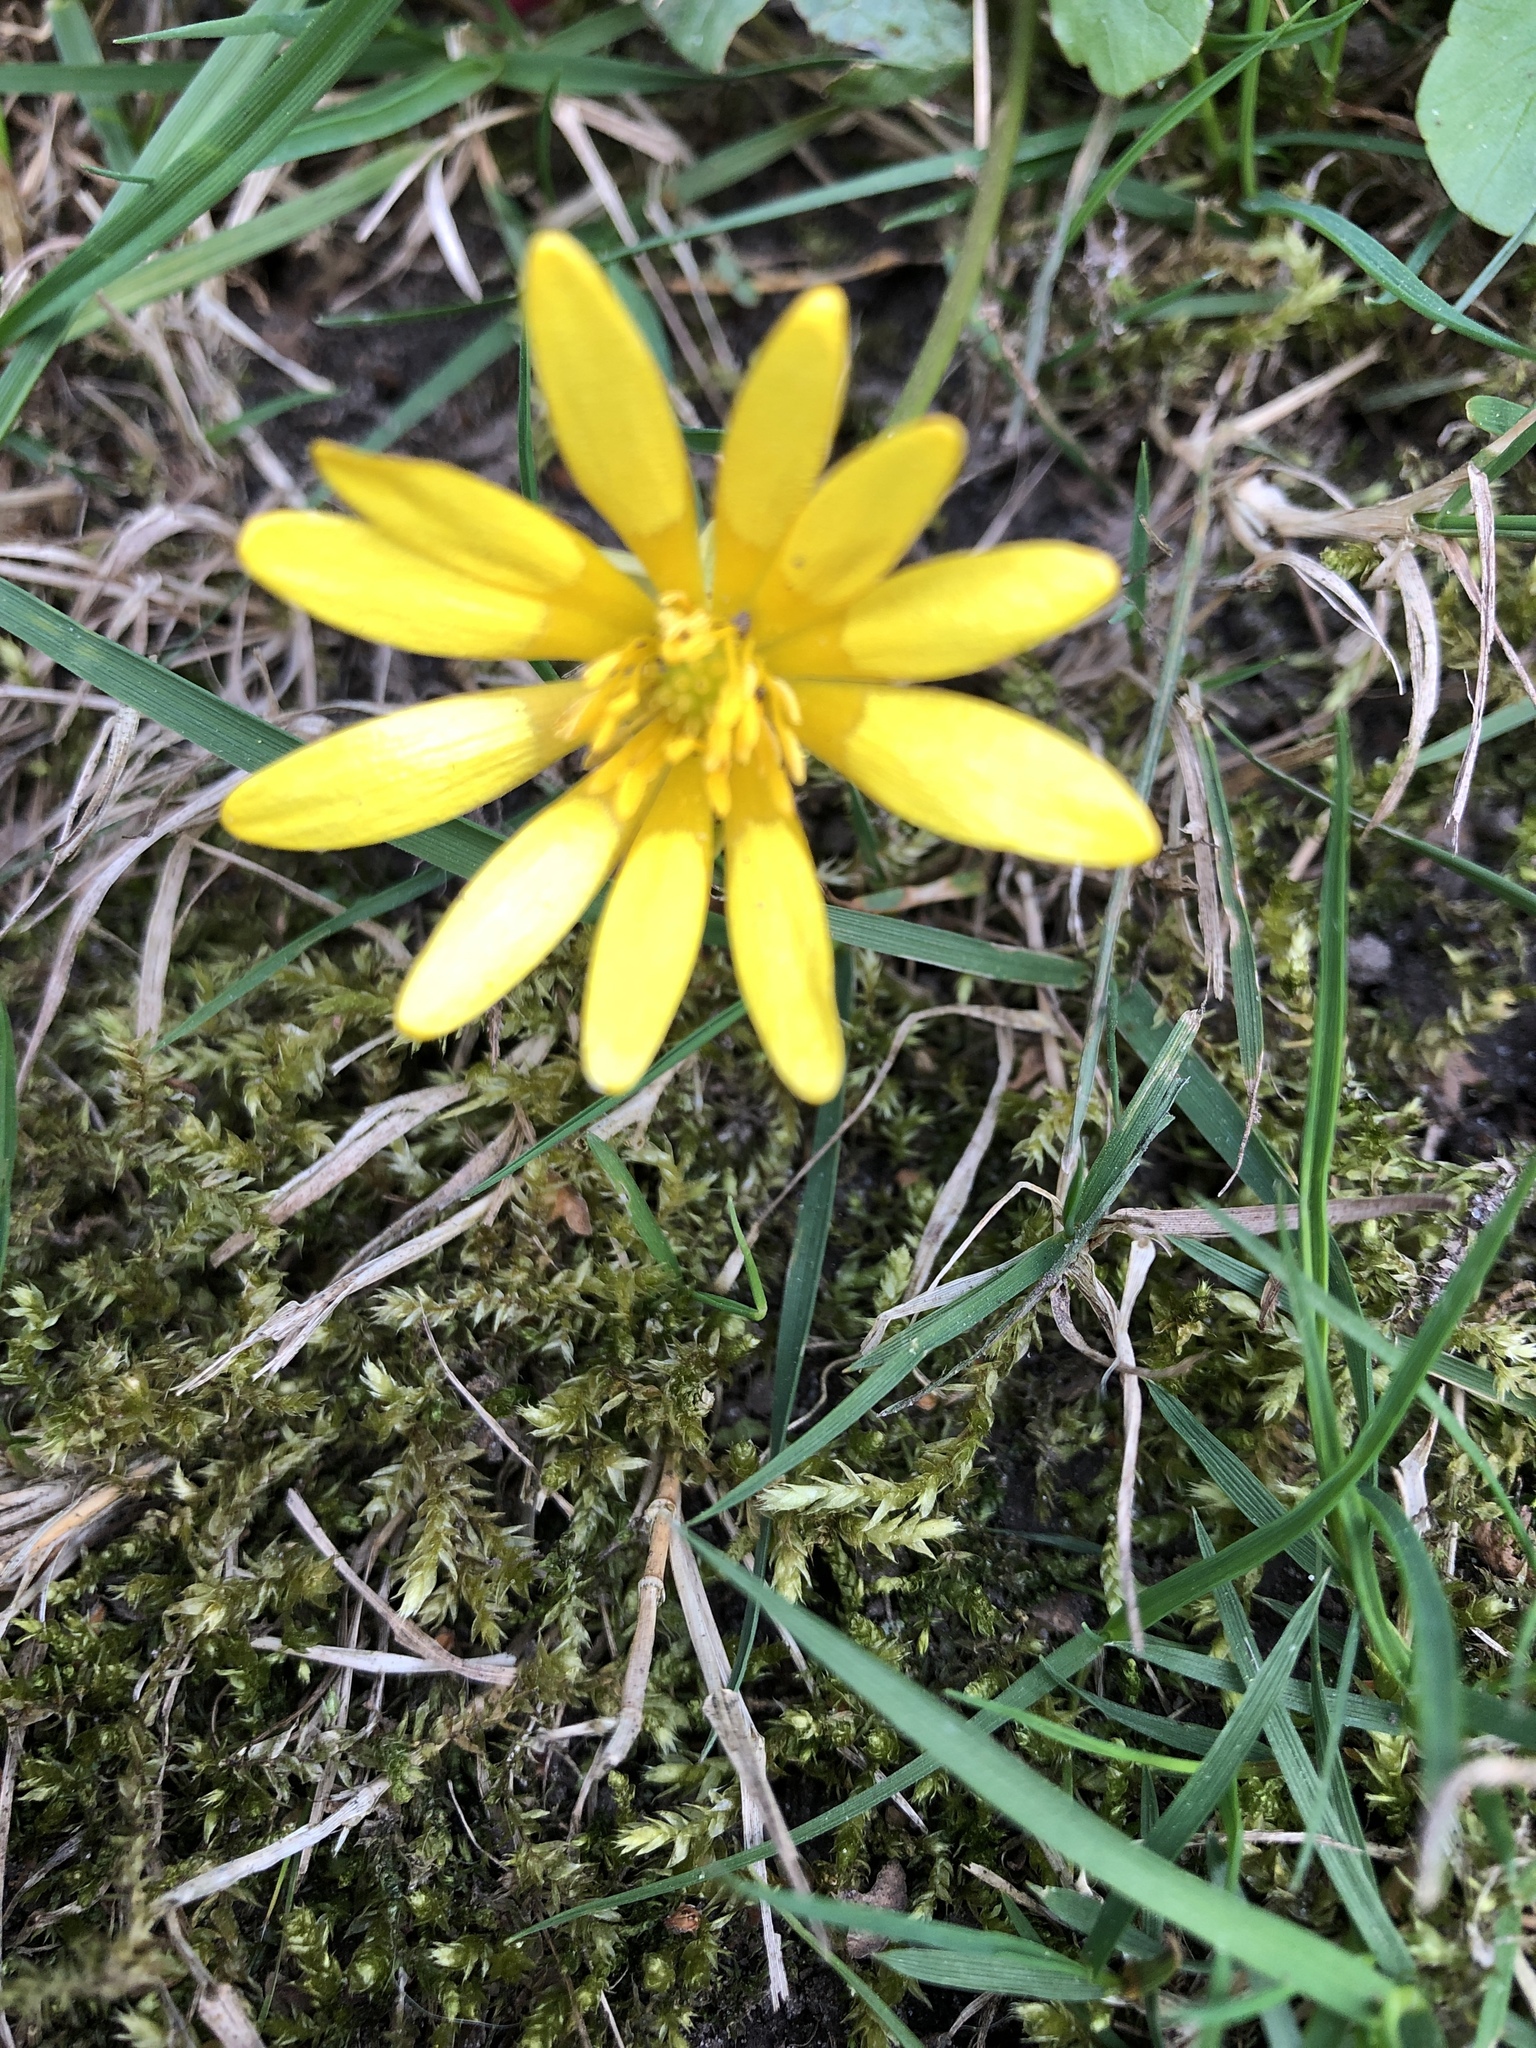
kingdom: Plantae
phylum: Tracheophyta
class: Magnoliopsida
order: Ranunculales
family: Ranunculaceae
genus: Ficaria
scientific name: Ficaria verna
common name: Lesser celandine
